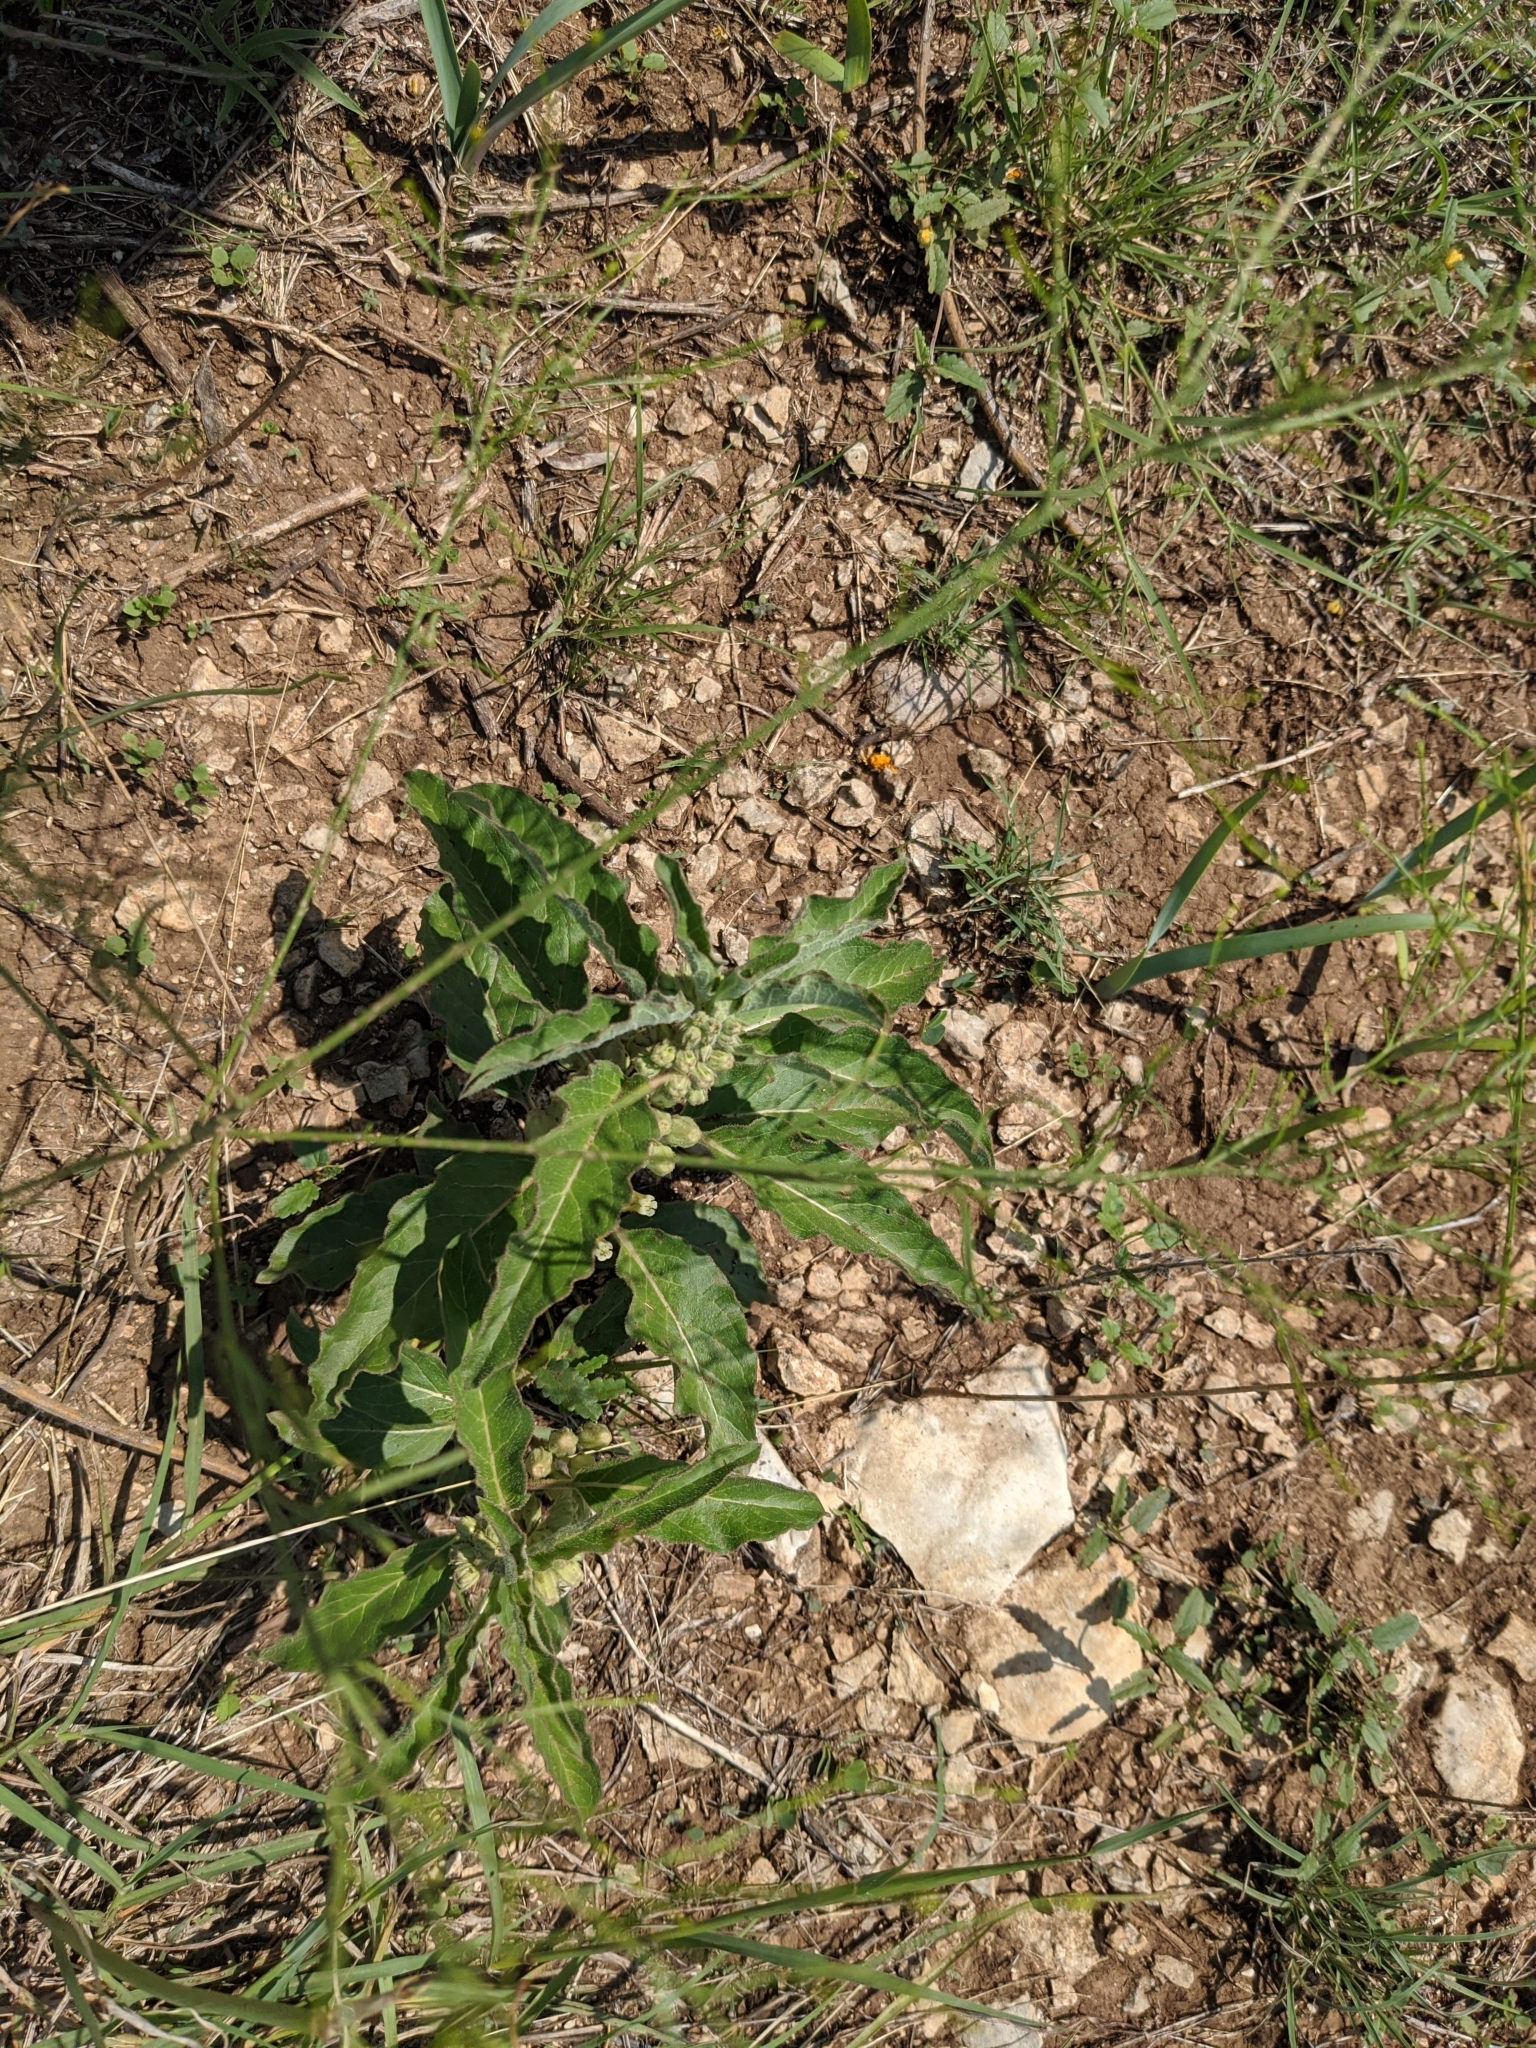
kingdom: Plantae
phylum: Tracheophyta
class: Magnoliopsida
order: Gentianales
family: Apocynaceae
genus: Asclepias
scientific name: Asclepias oenotheroides
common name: Zizotes milkweed
